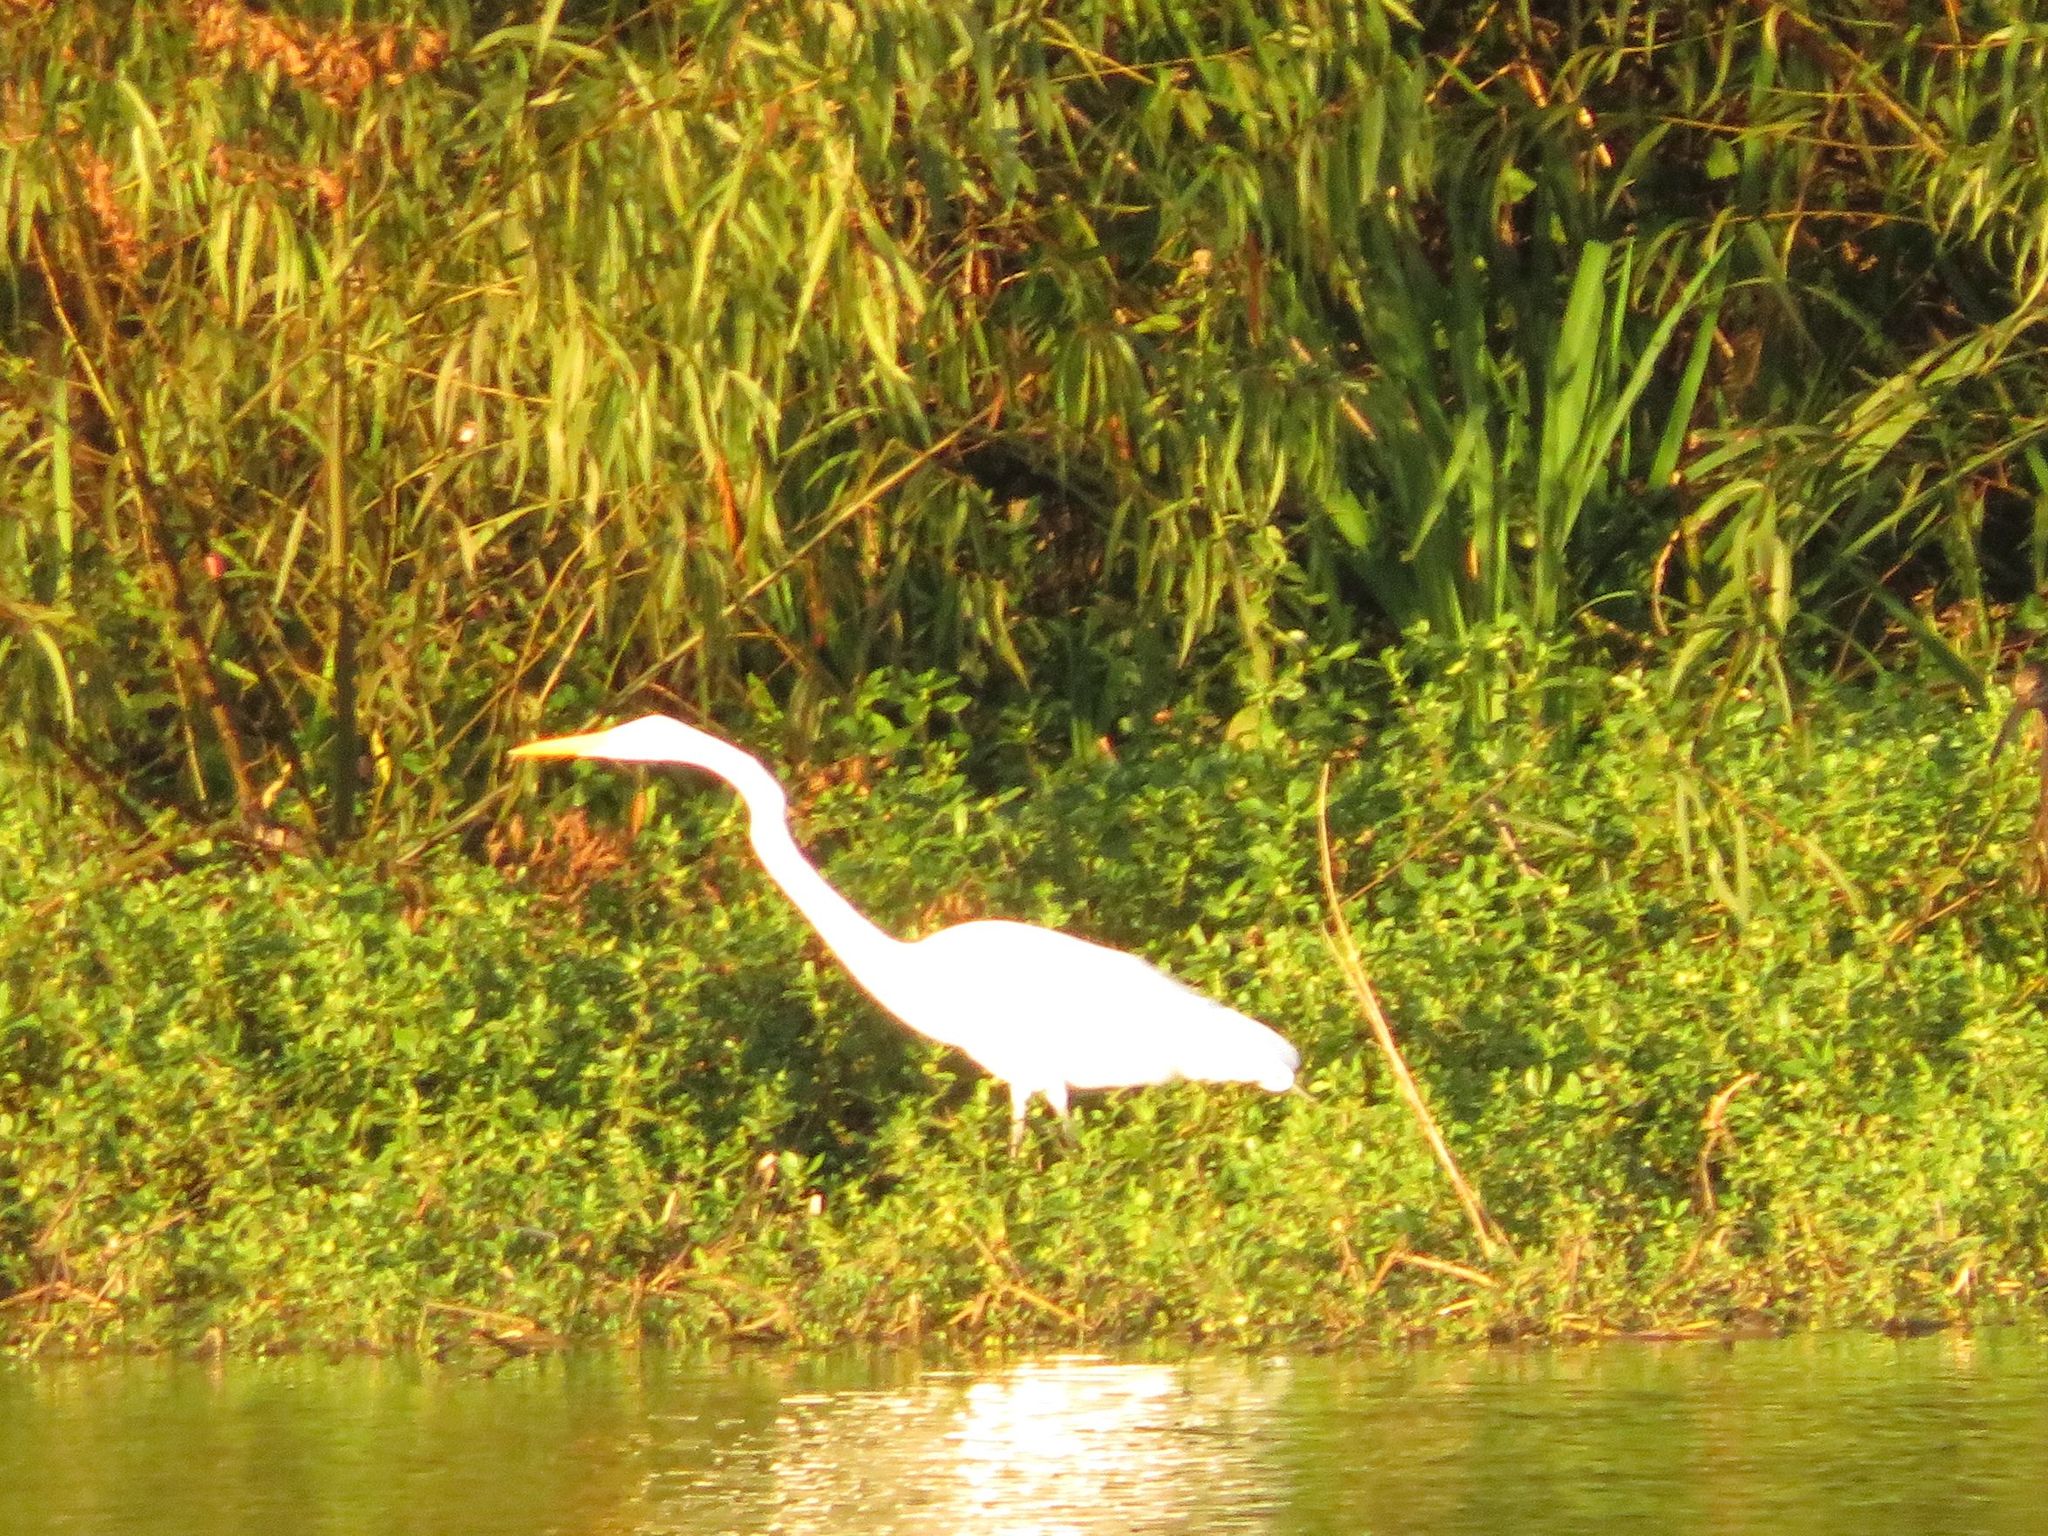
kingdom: Animalia
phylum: Chordata
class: Aves
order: Pelecaniformes
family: Ardeidae
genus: Ardea
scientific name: Ardea alba
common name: Great egret
